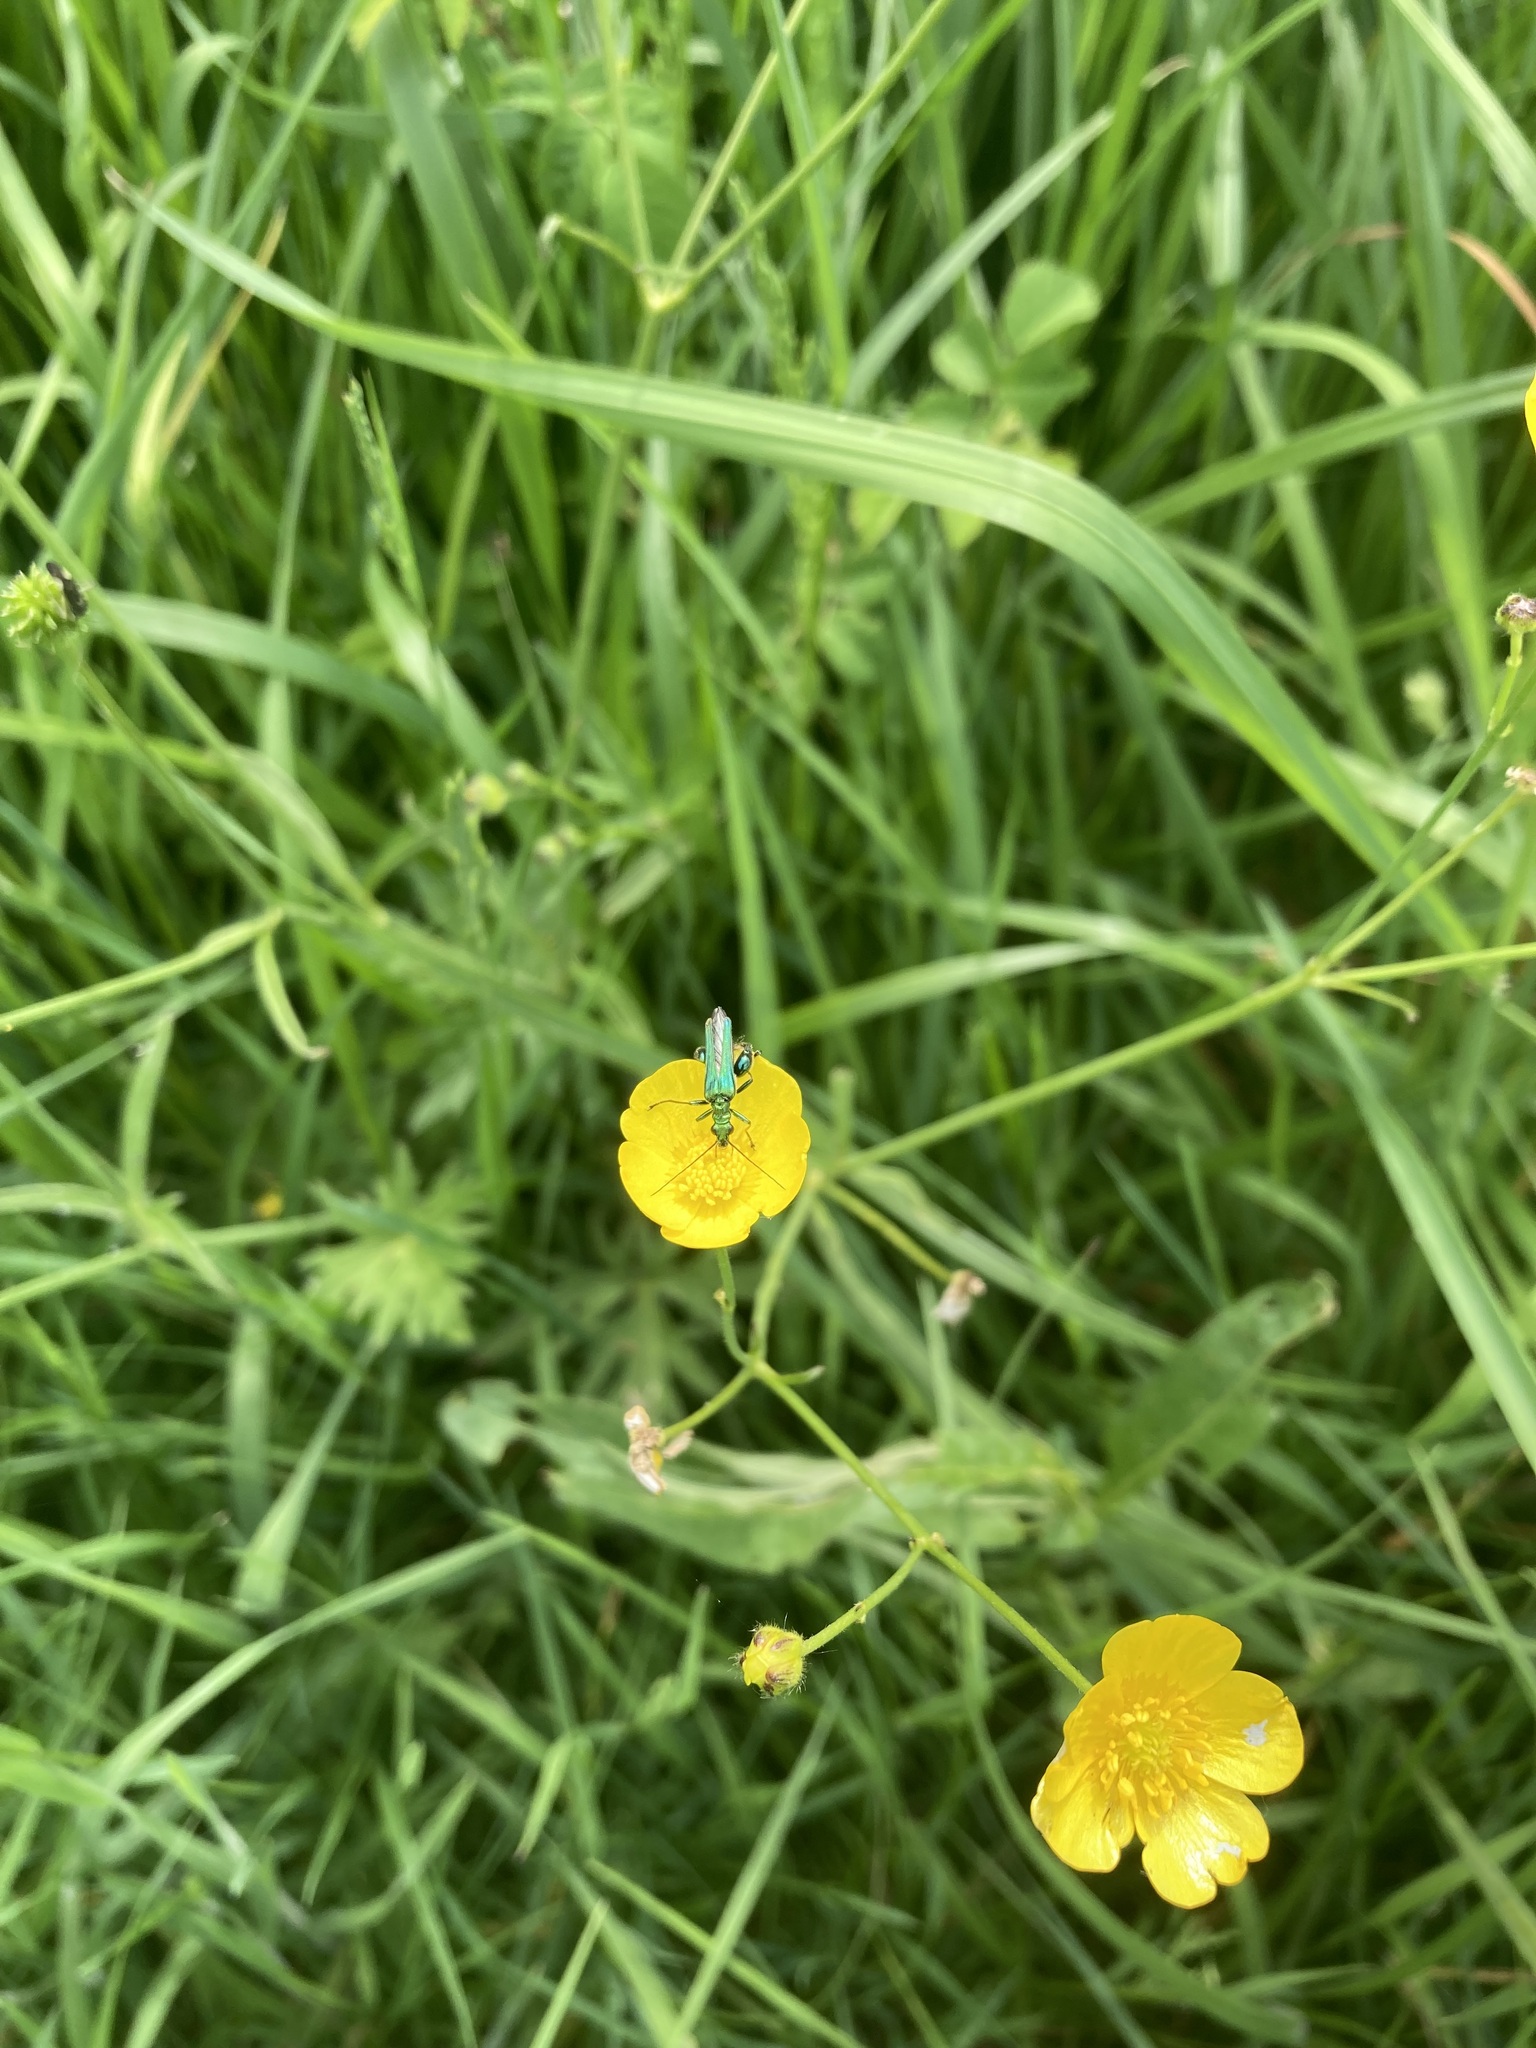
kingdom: Animalia
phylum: Arthropoda
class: Insecta
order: Coleoptera
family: Oedemeridae
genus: Oedemera
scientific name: Oedemera nobilis
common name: Swollen-thighed beetle
